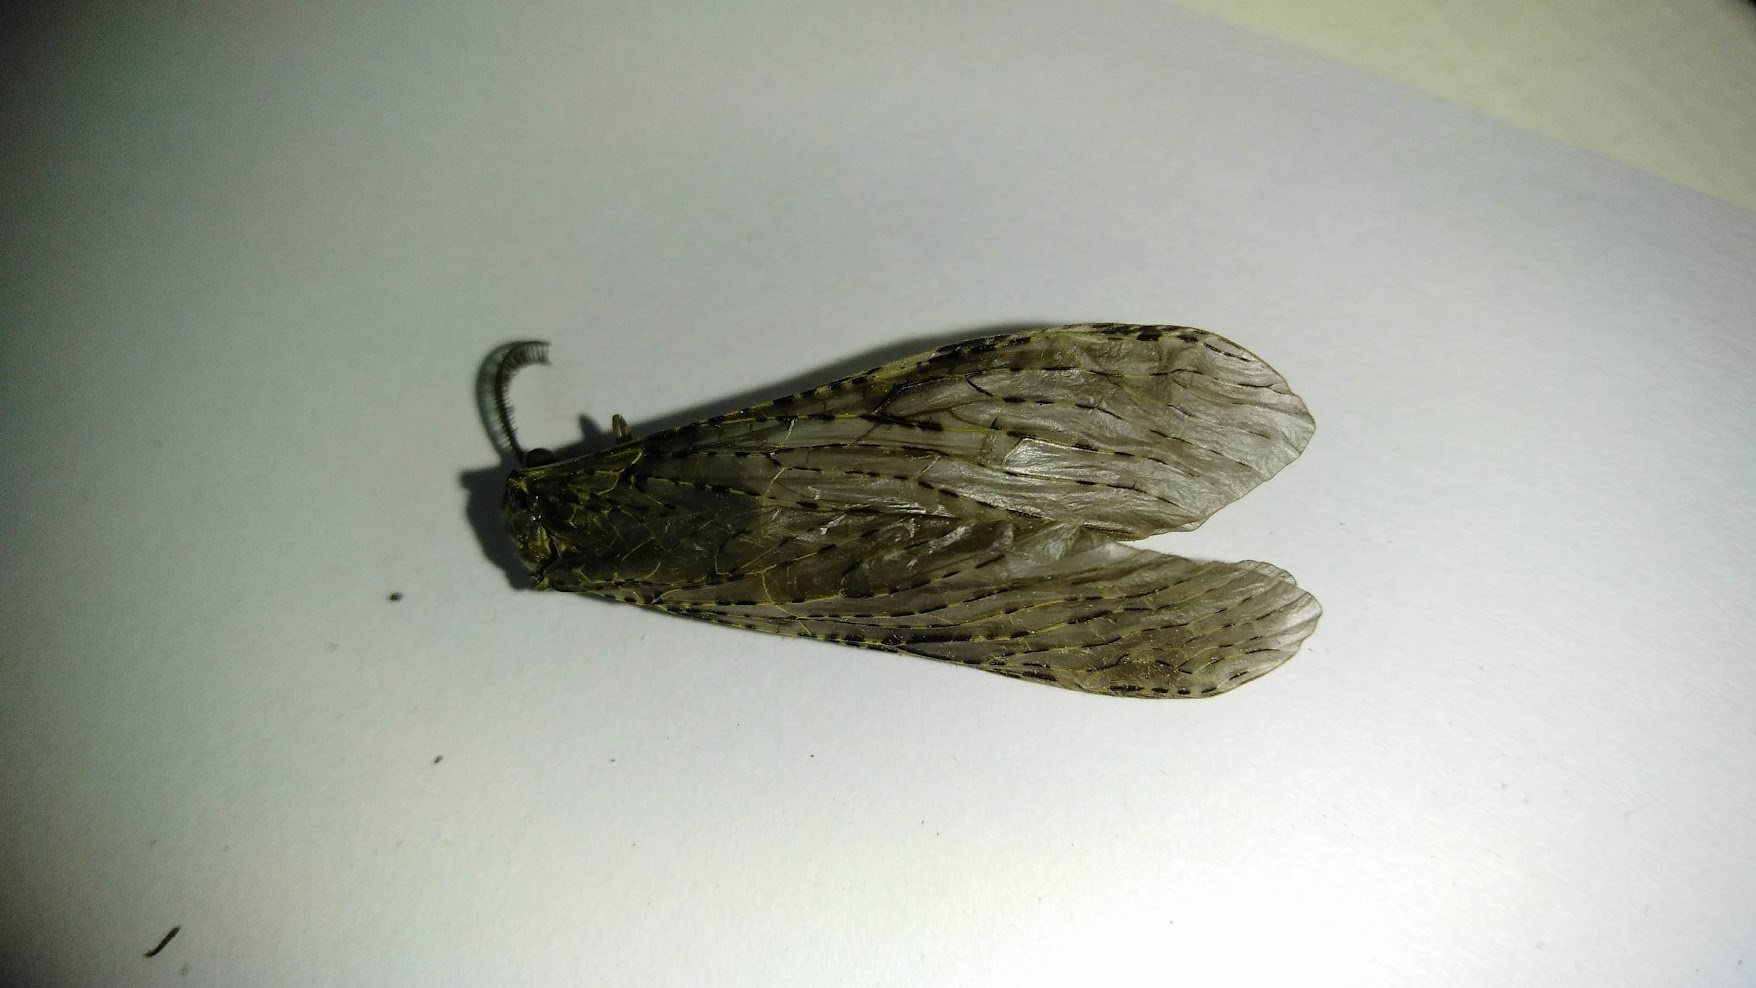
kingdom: Animalia
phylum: Arthropoda
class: Insecta
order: Megaloptera
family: Corydalidae
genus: Chauliodes
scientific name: Chauliodes rastricornis
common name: Spring fishfly
